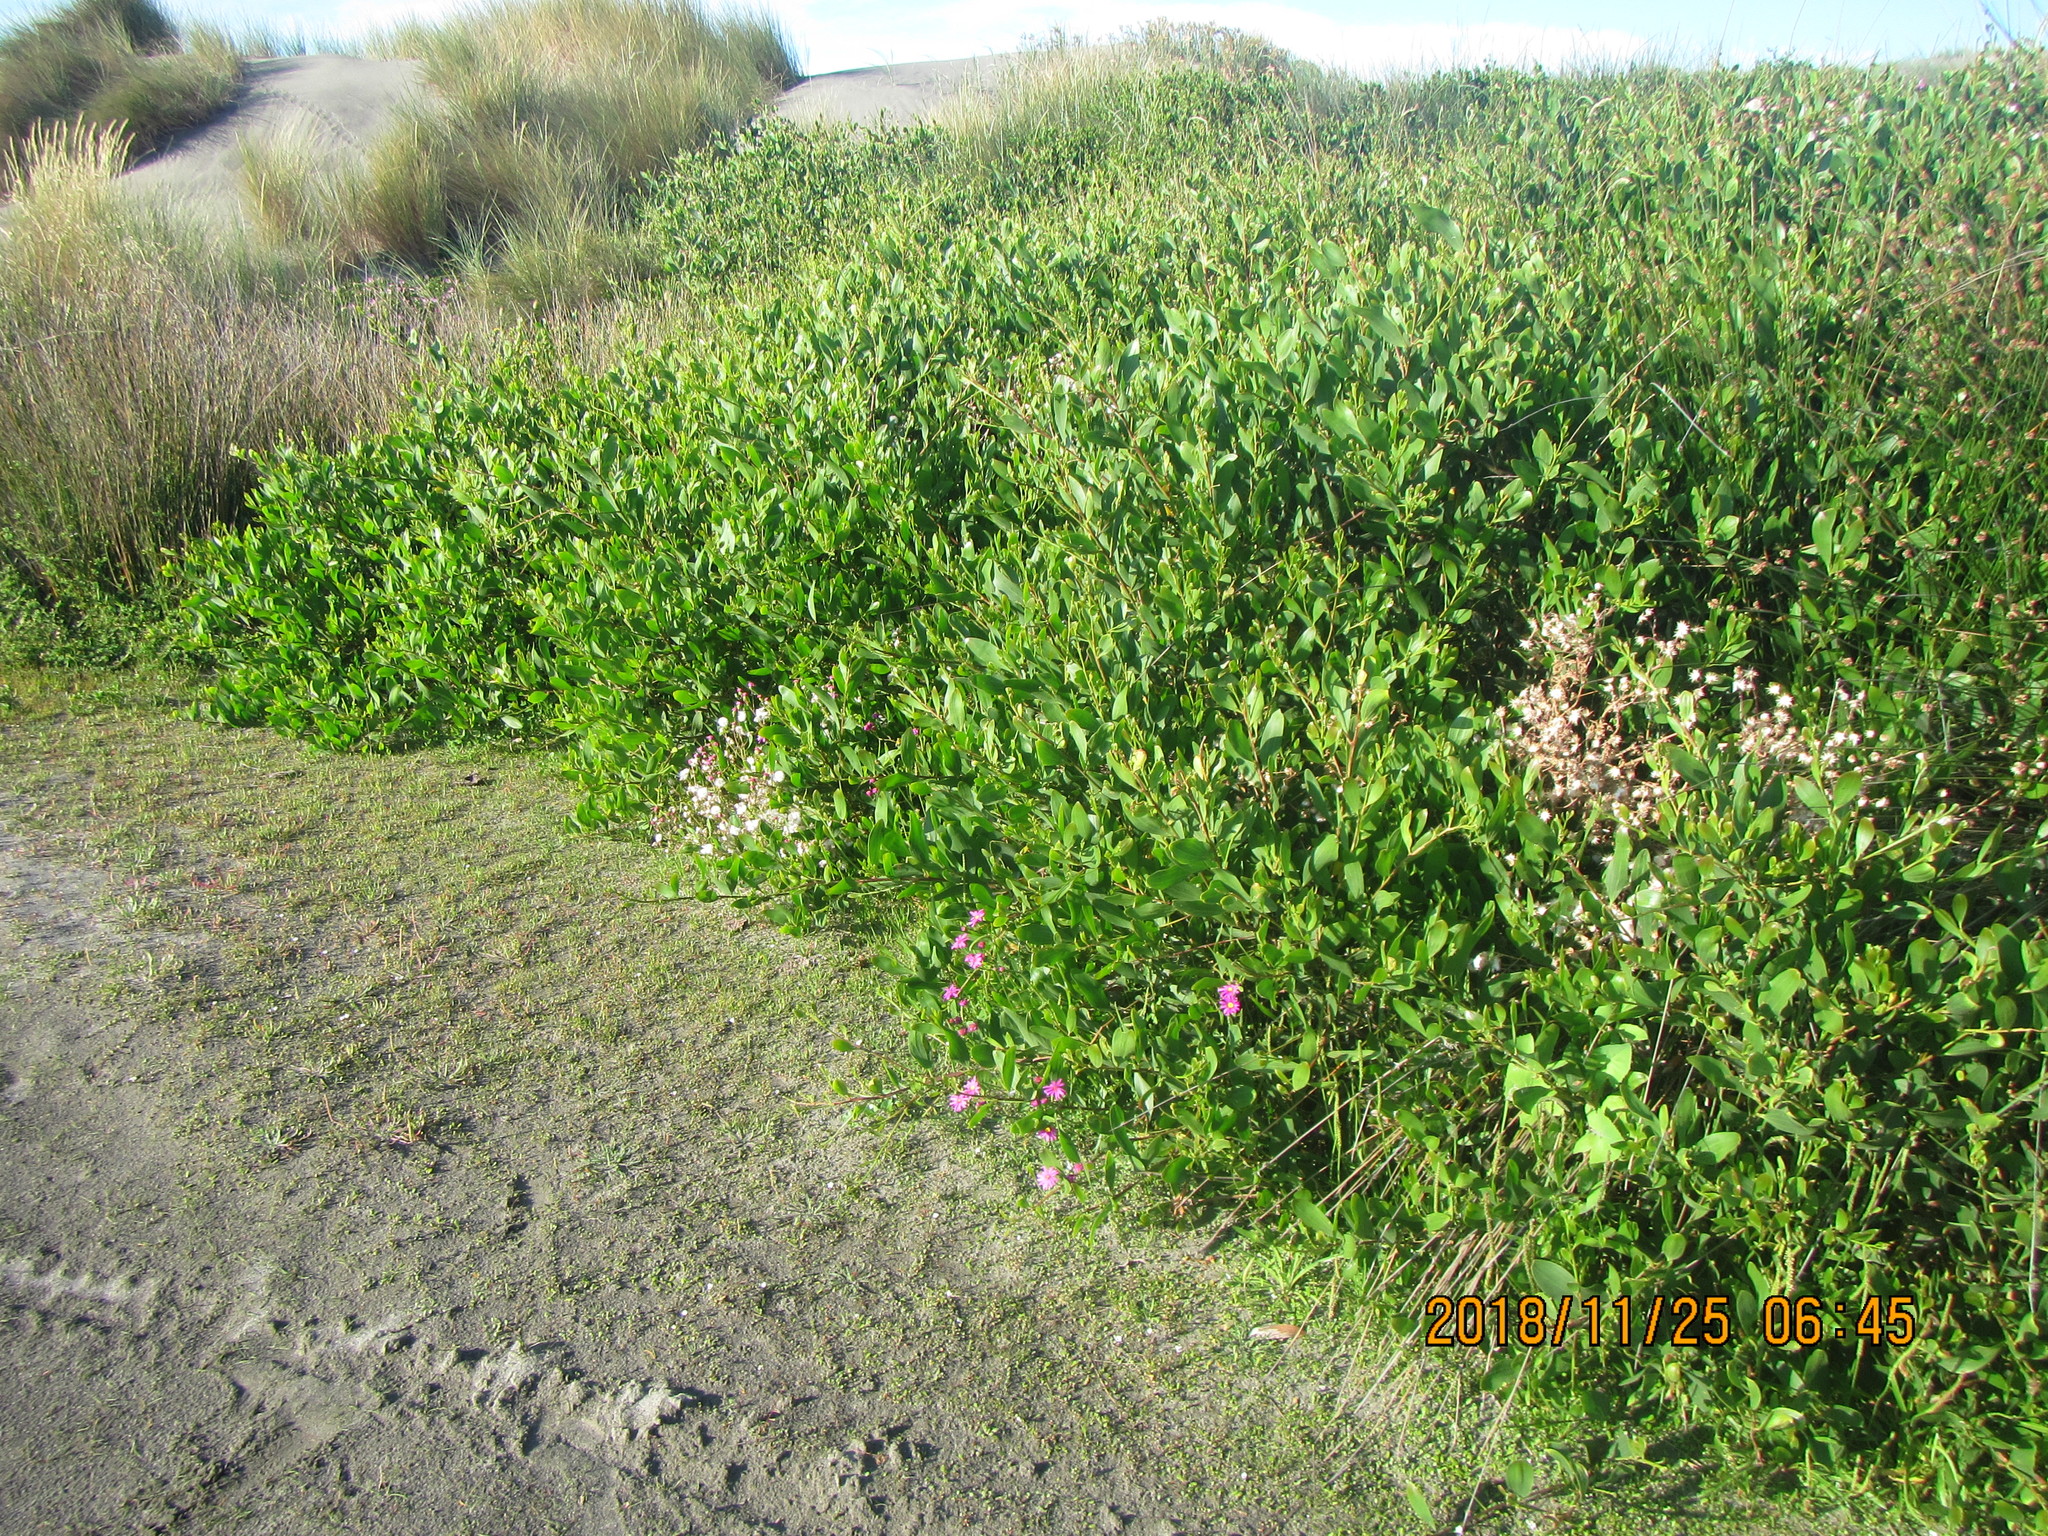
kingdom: Plantae
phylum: Tracheophyta
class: Magnoliopsida
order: Fabales
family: Fabaceae
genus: Acacia
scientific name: Acacia longifolia
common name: Sydney golden wattle
